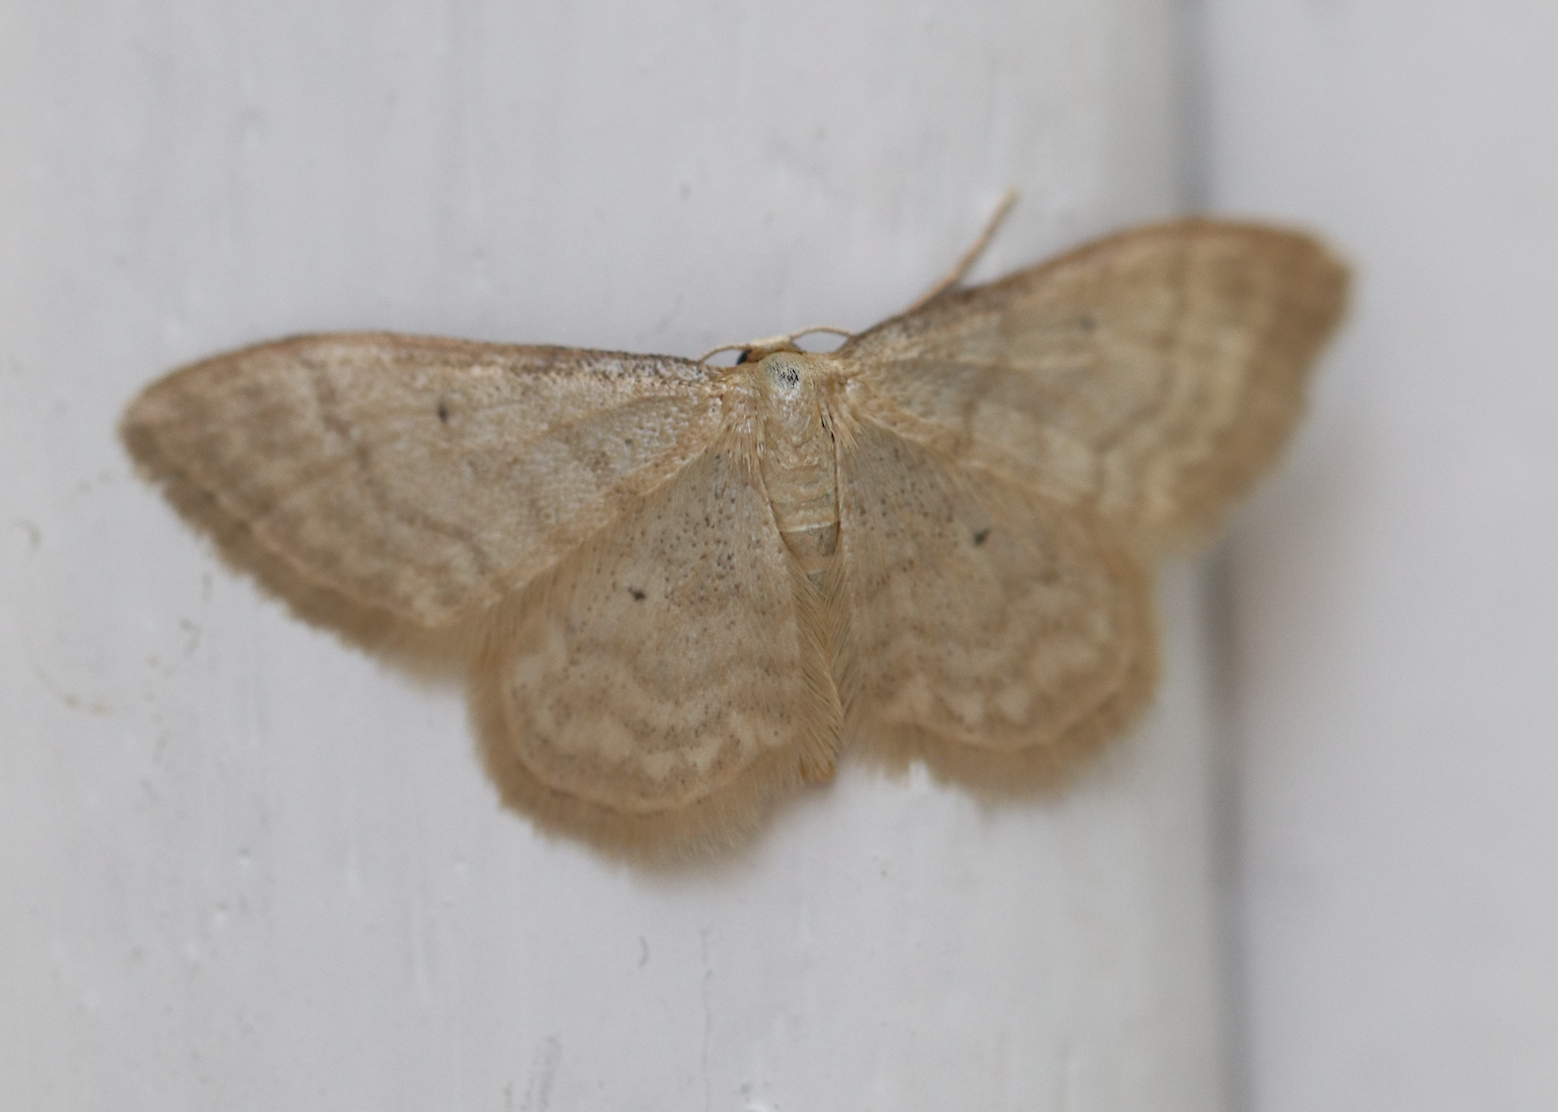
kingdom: Animalia
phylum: Arthropoda
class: Insecta
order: Lepidoptera
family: Geometridae
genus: Idaea
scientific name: Idaea dilutaria
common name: Silky wave
